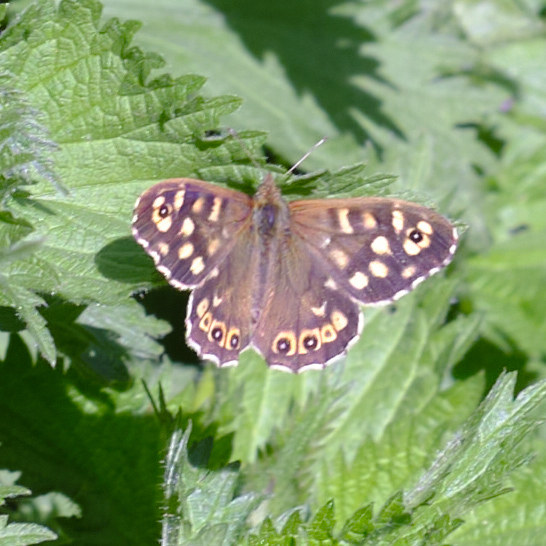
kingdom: Animalia
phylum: Arthropoda
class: Insecta
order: Lepidoptera
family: Nymphalidae
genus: Pararge
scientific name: Pararge aegeria
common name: Speckled wood
